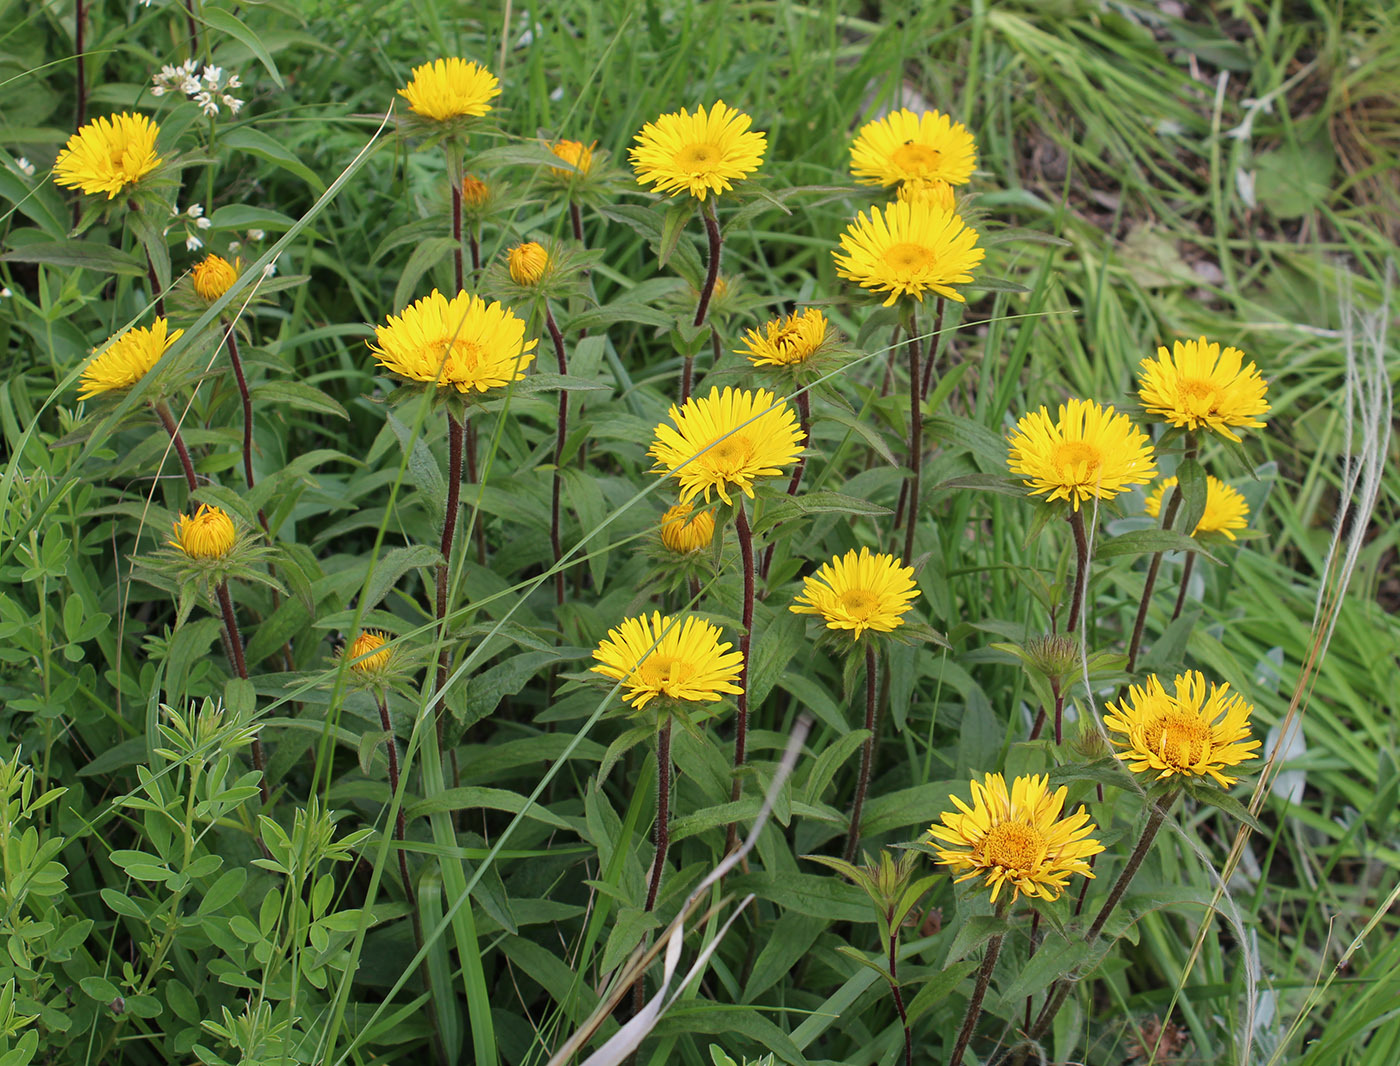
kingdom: Plantae
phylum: Tracheophyta
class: Magnoliopsida
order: Asterales
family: Asteraceae
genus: Pentanema
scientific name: Pentanema hirtum
